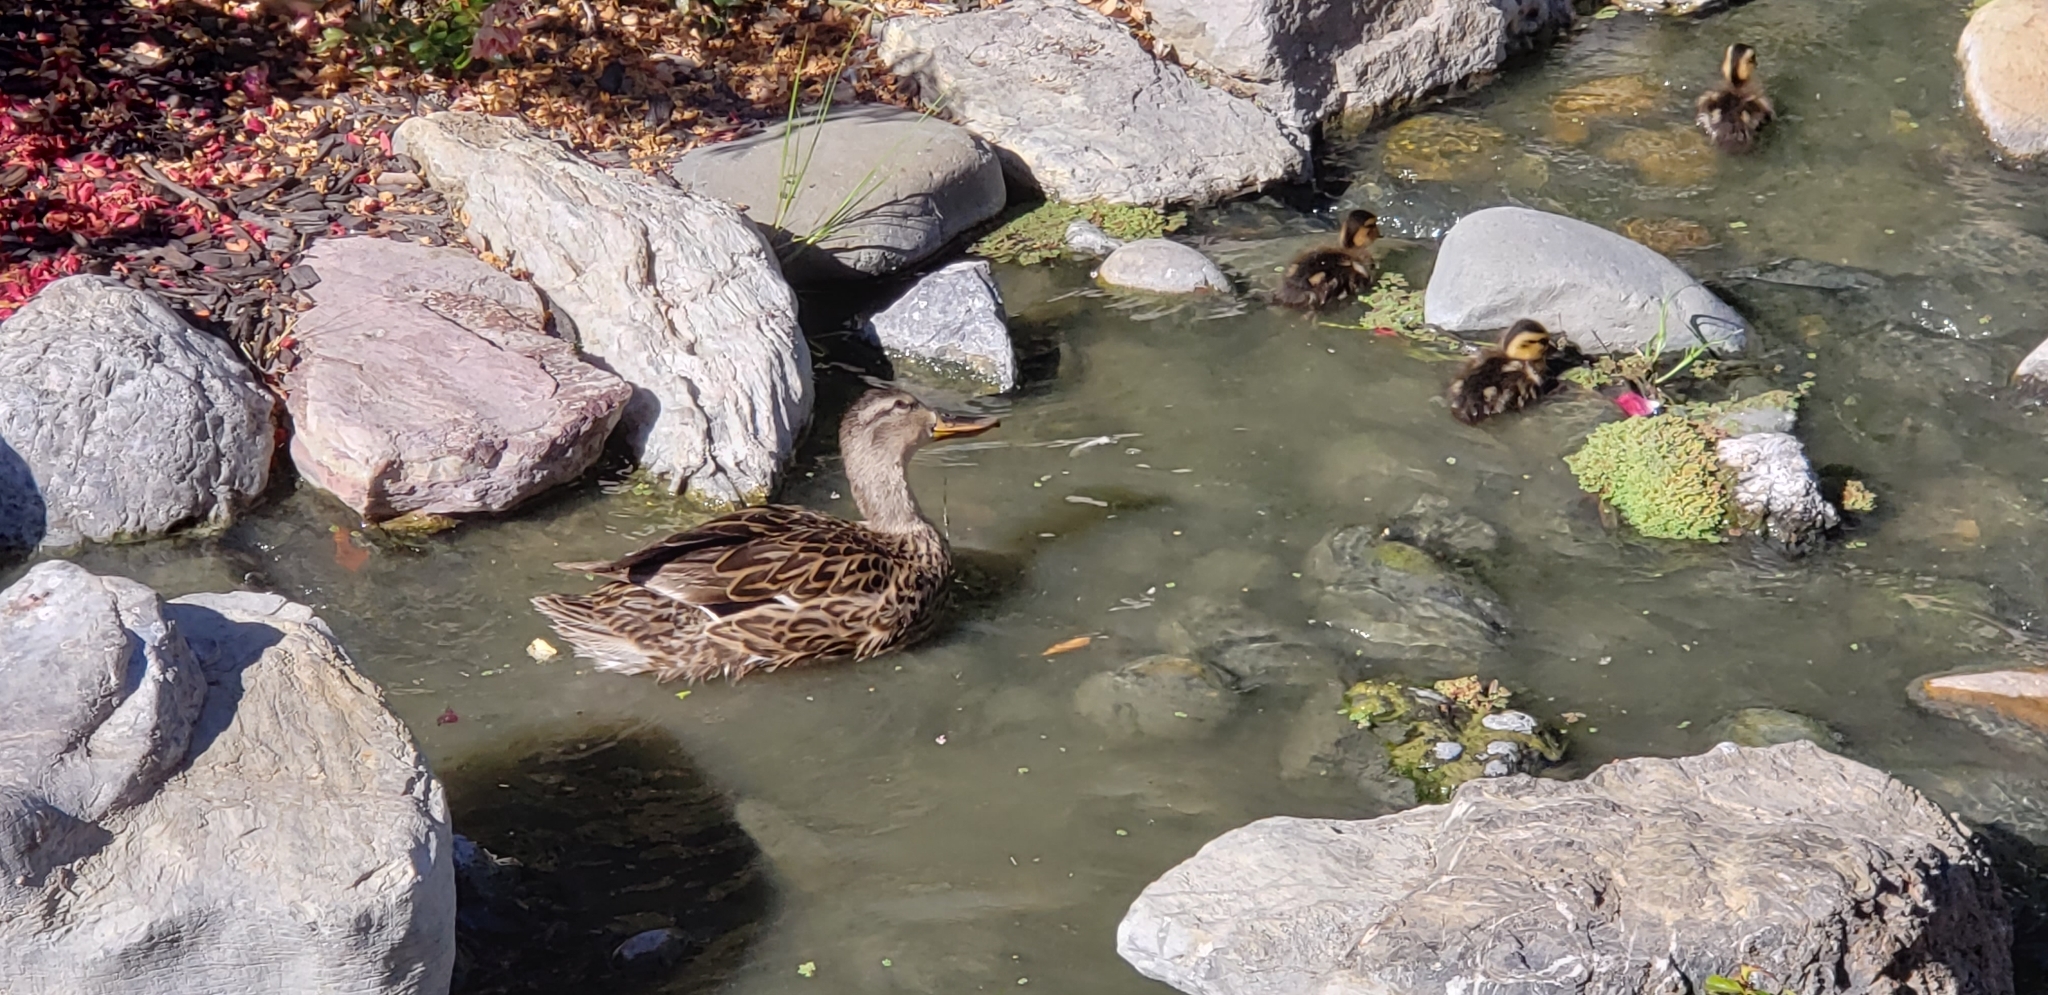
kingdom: Animalia
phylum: Chordata
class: Aves
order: Anseriformes
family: Anatidae
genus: Anas
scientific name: Anas platyrhynchos
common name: Mallard
